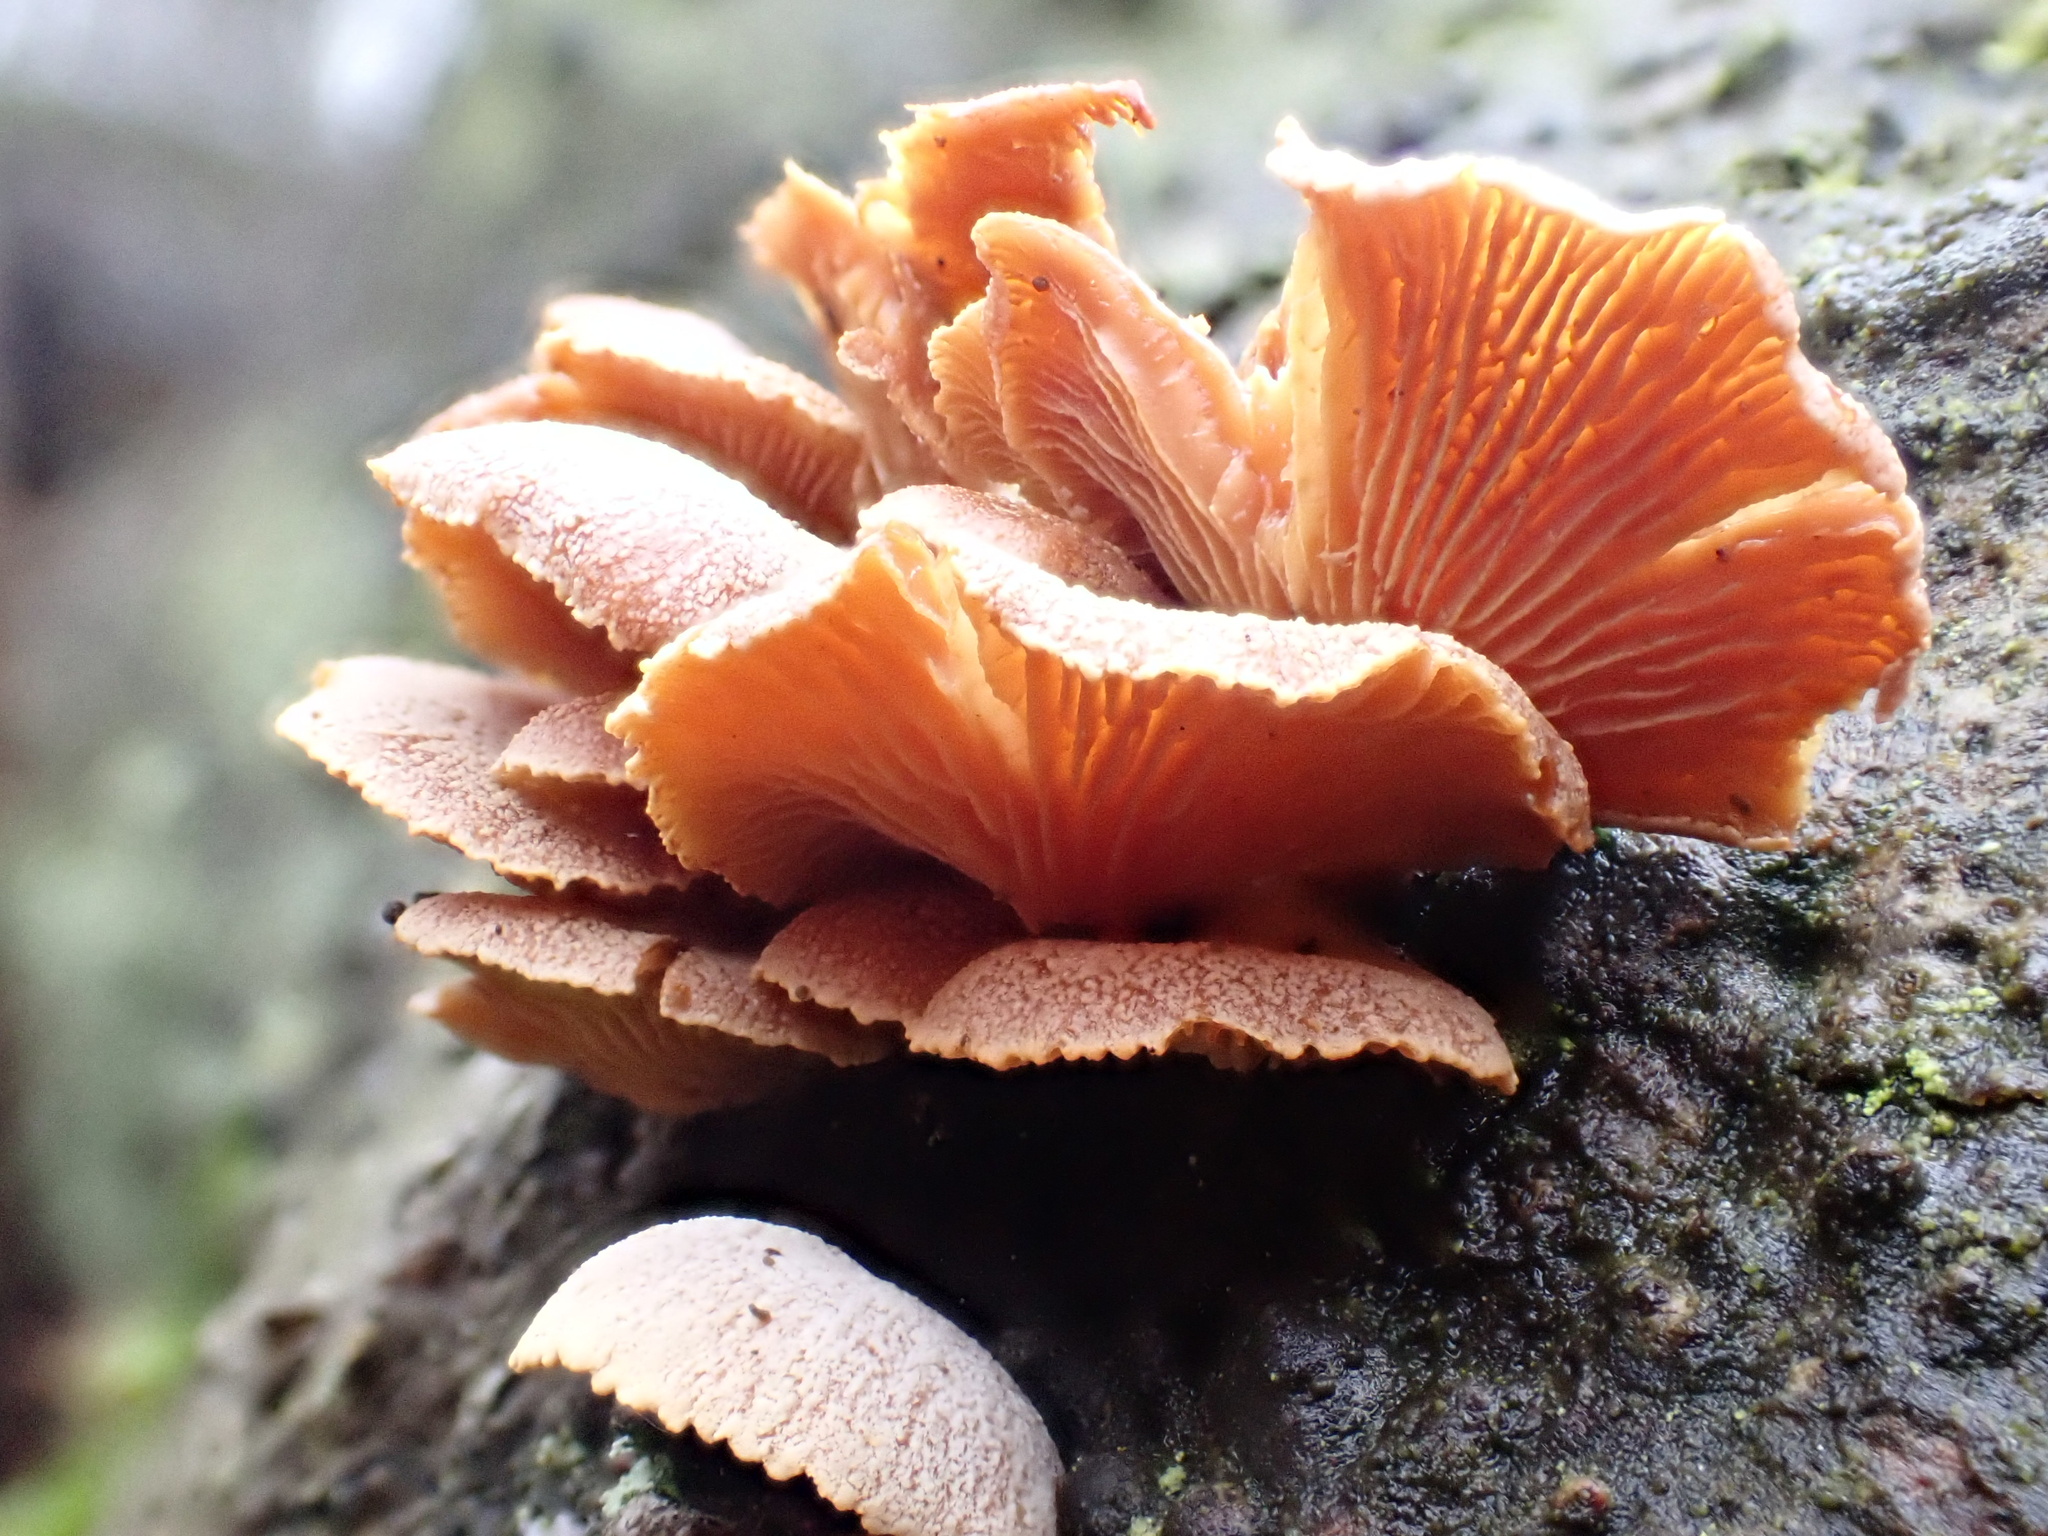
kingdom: Fungi
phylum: Basidiomycota
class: Agaricomycetes
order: Agaricales
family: Mycenaceae
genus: Panellus
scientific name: Panellus stipticus
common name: Bitter oysterling
